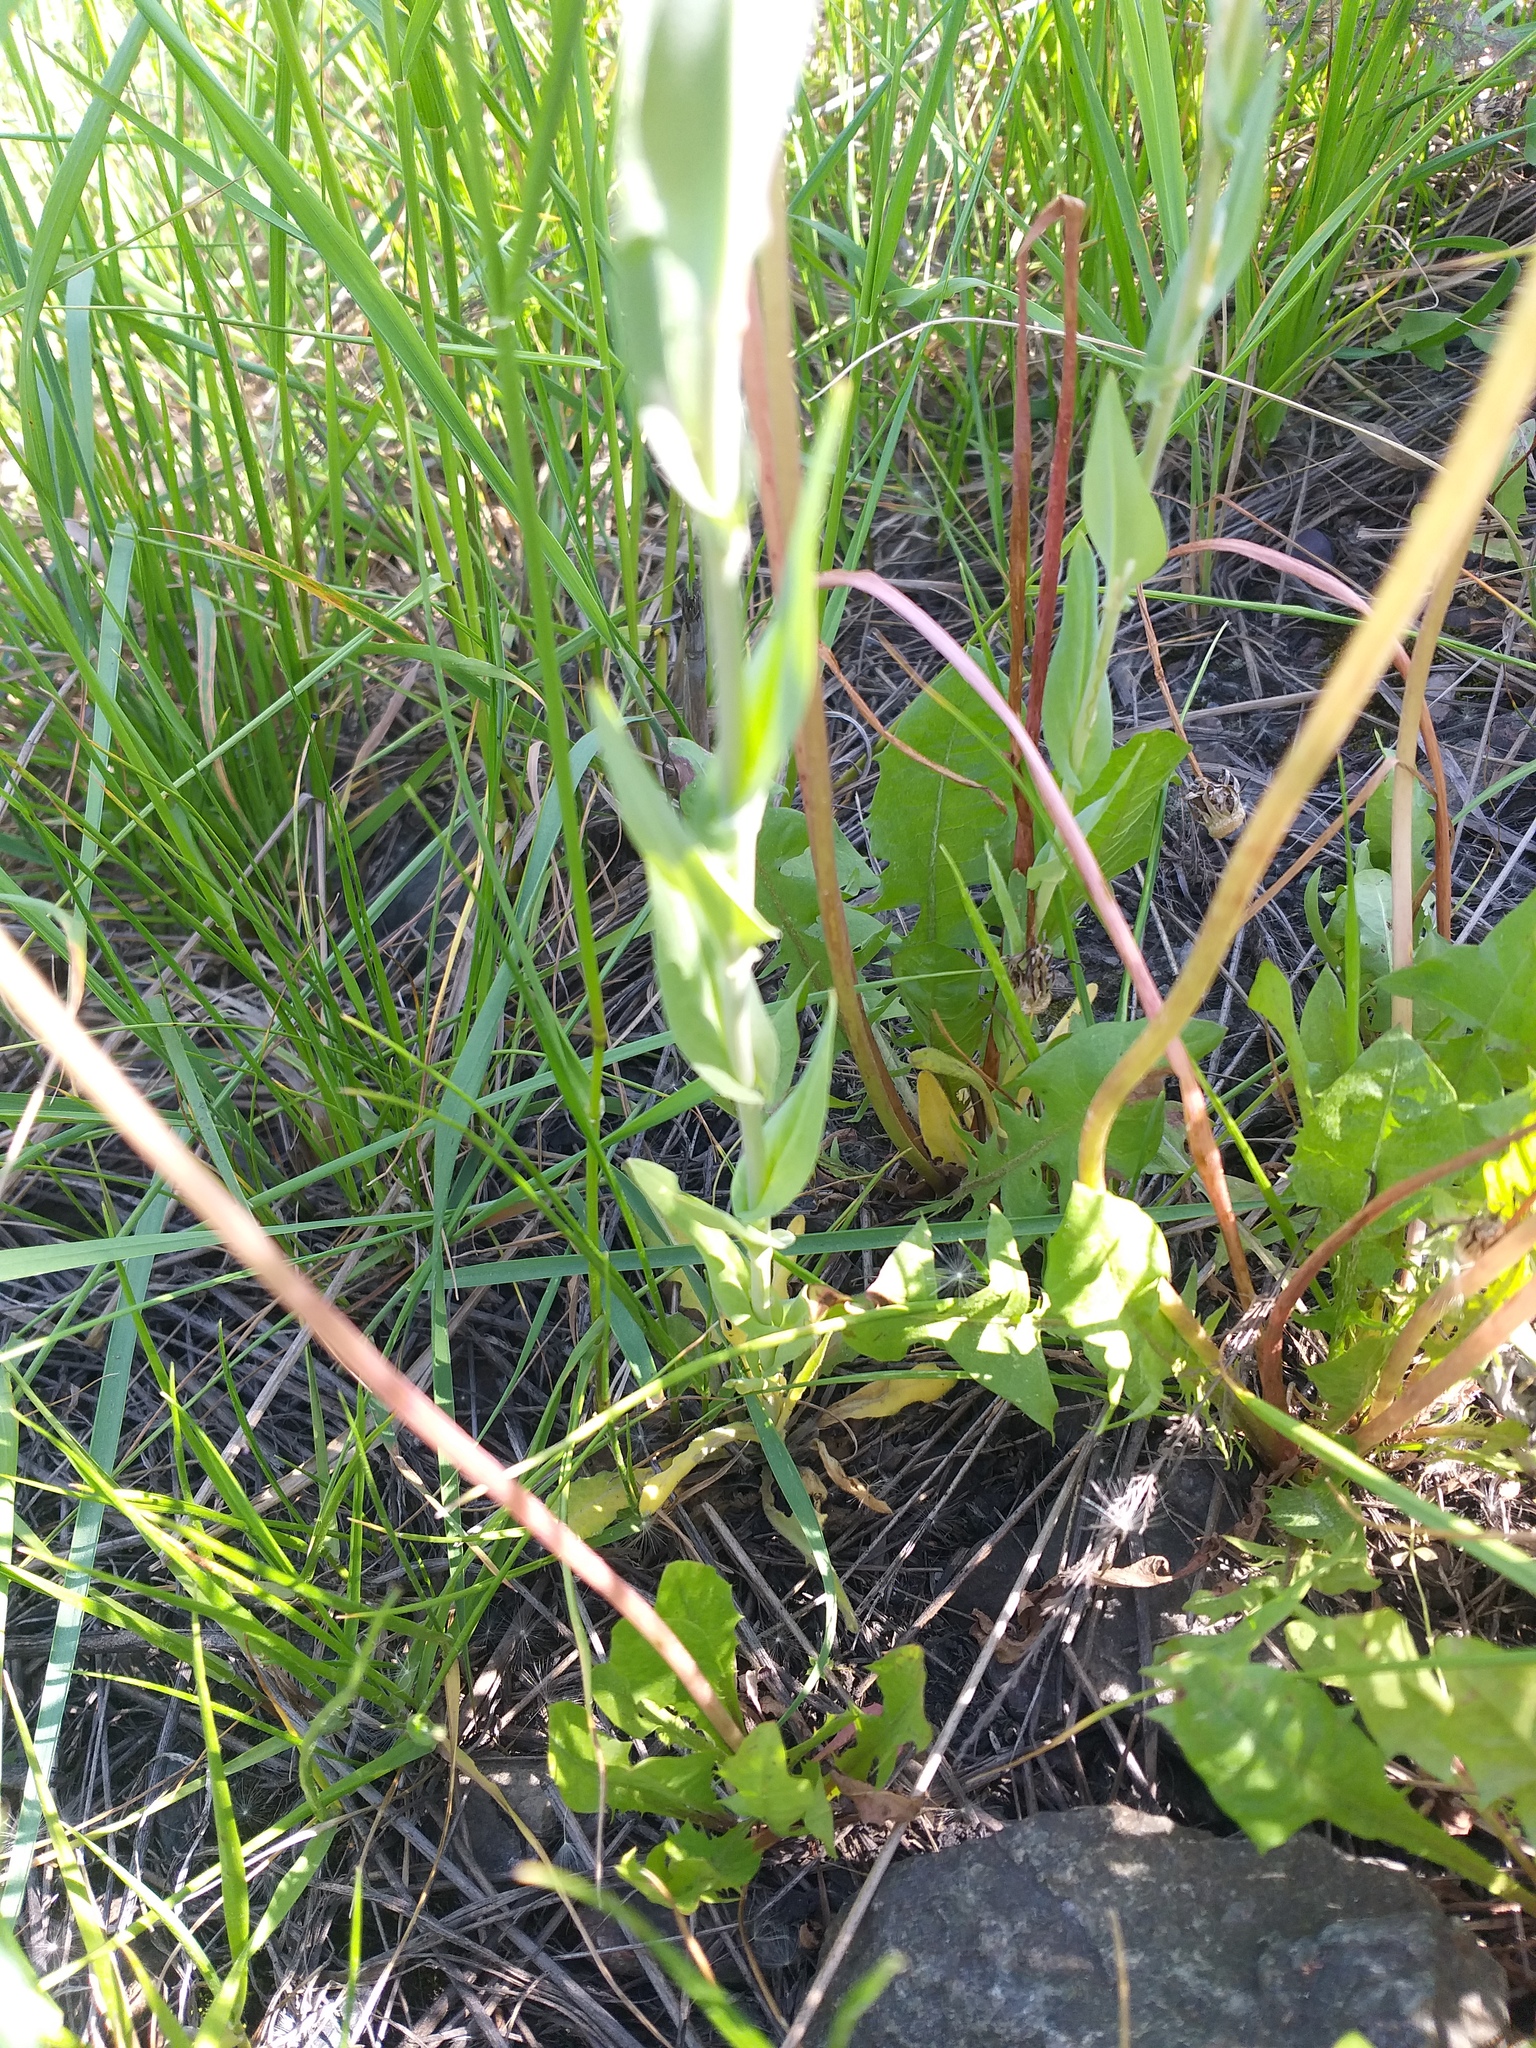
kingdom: Plantae
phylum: Tracheophyta
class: Magnoliopsida
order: Brassicales
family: Brassicaceae
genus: Turritis
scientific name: Turritis glabra
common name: Tower rockcress
